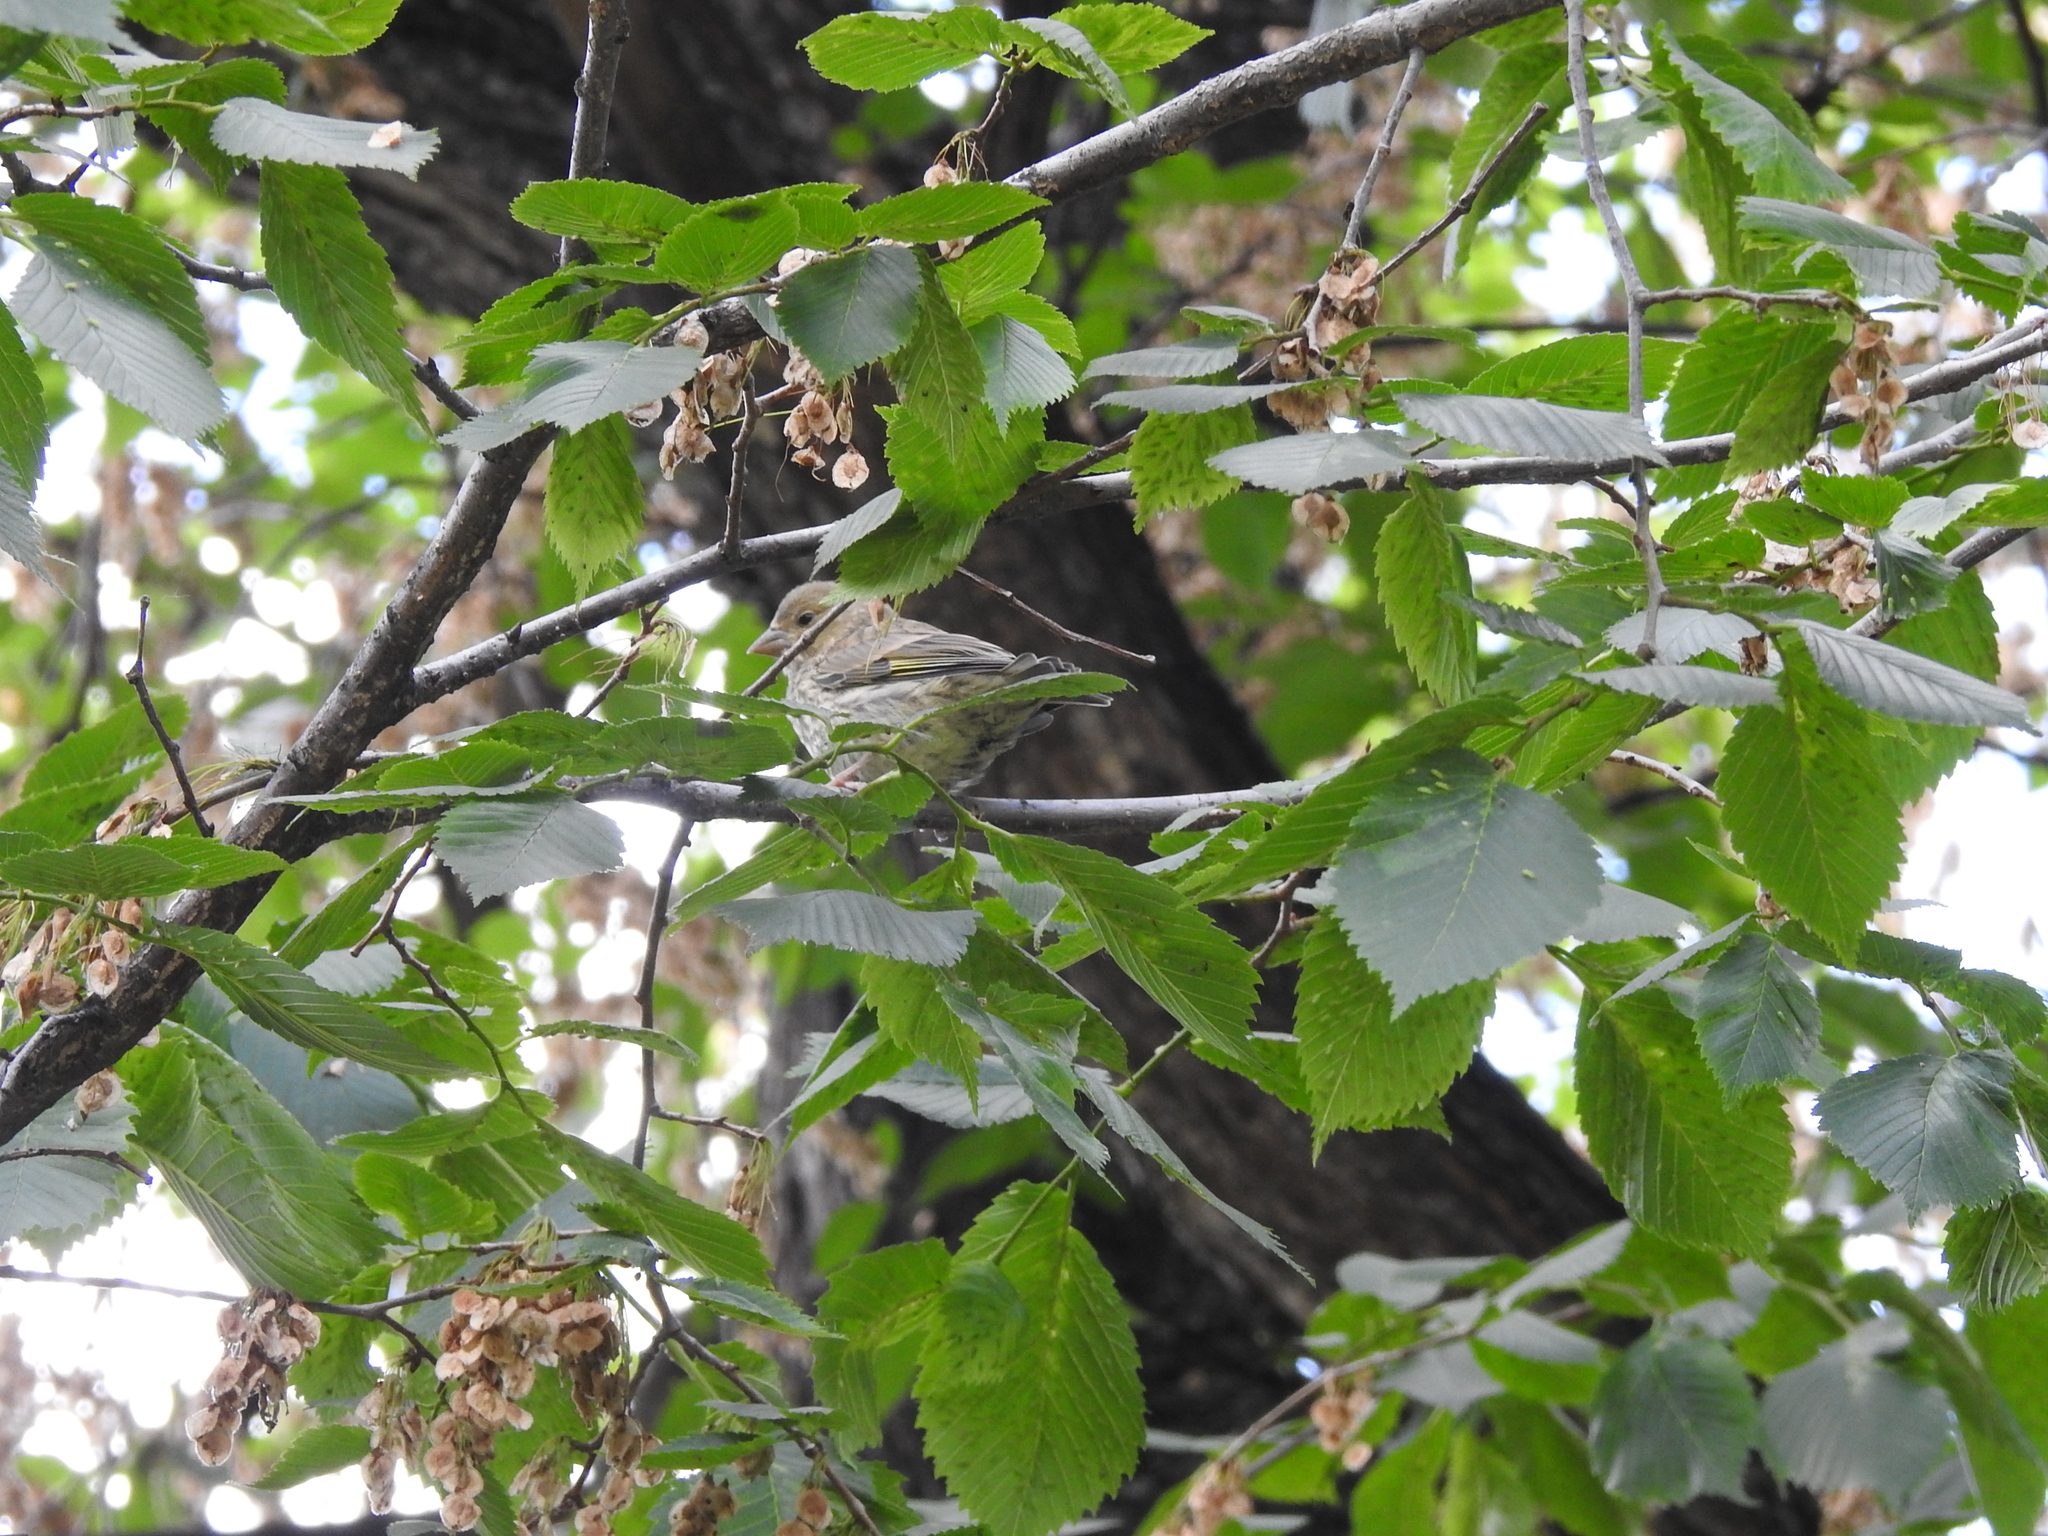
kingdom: Plantae
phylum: Tracheophyta
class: Liliopsida
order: Poales
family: Poaceae
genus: Chloris
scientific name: Chloris chloris
